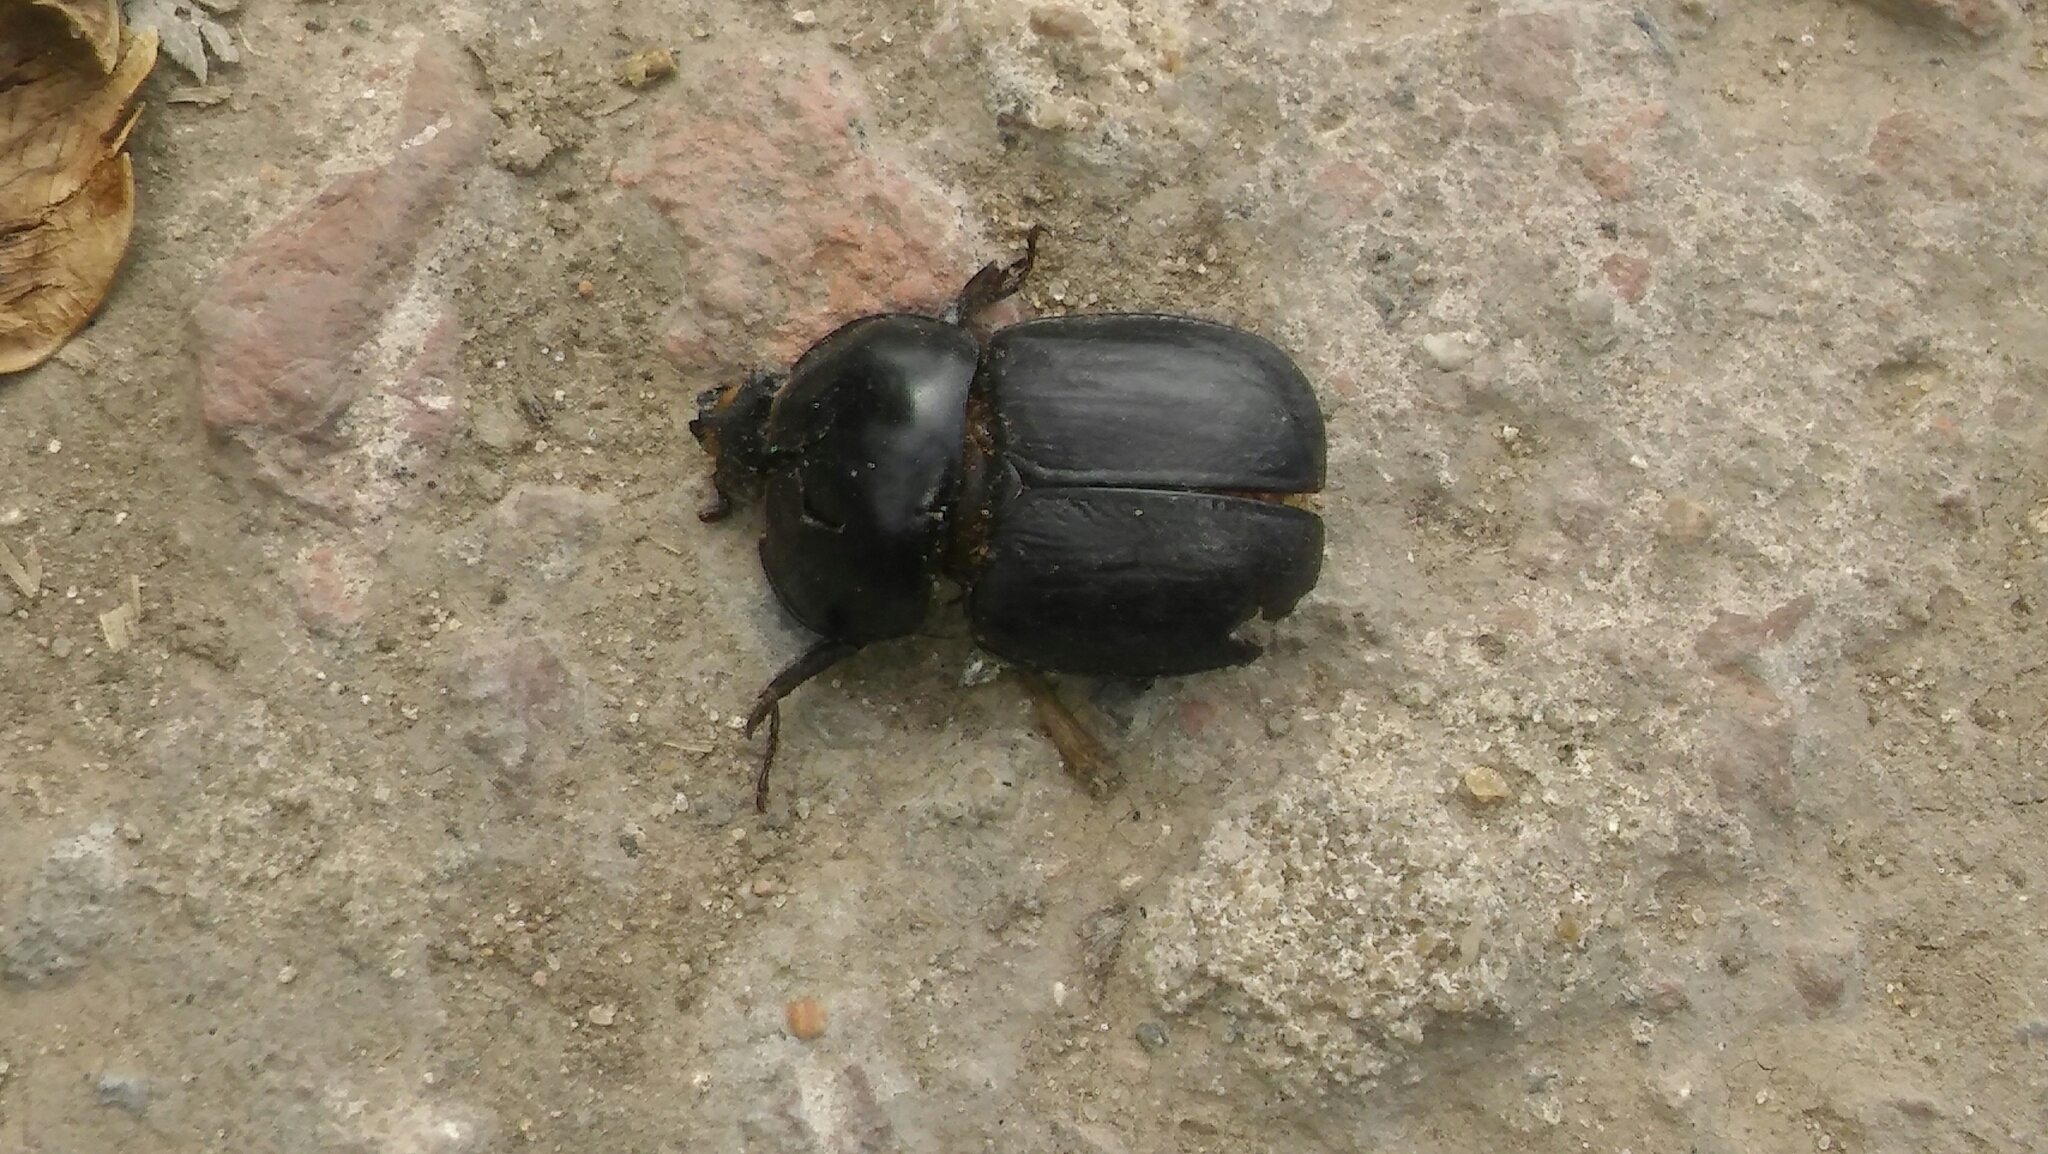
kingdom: Animalia
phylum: Arthropoda
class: Insecta
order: Coleoptera
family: Scarabaeidae
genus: Diloboderus
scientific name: Diloboderus abderus
